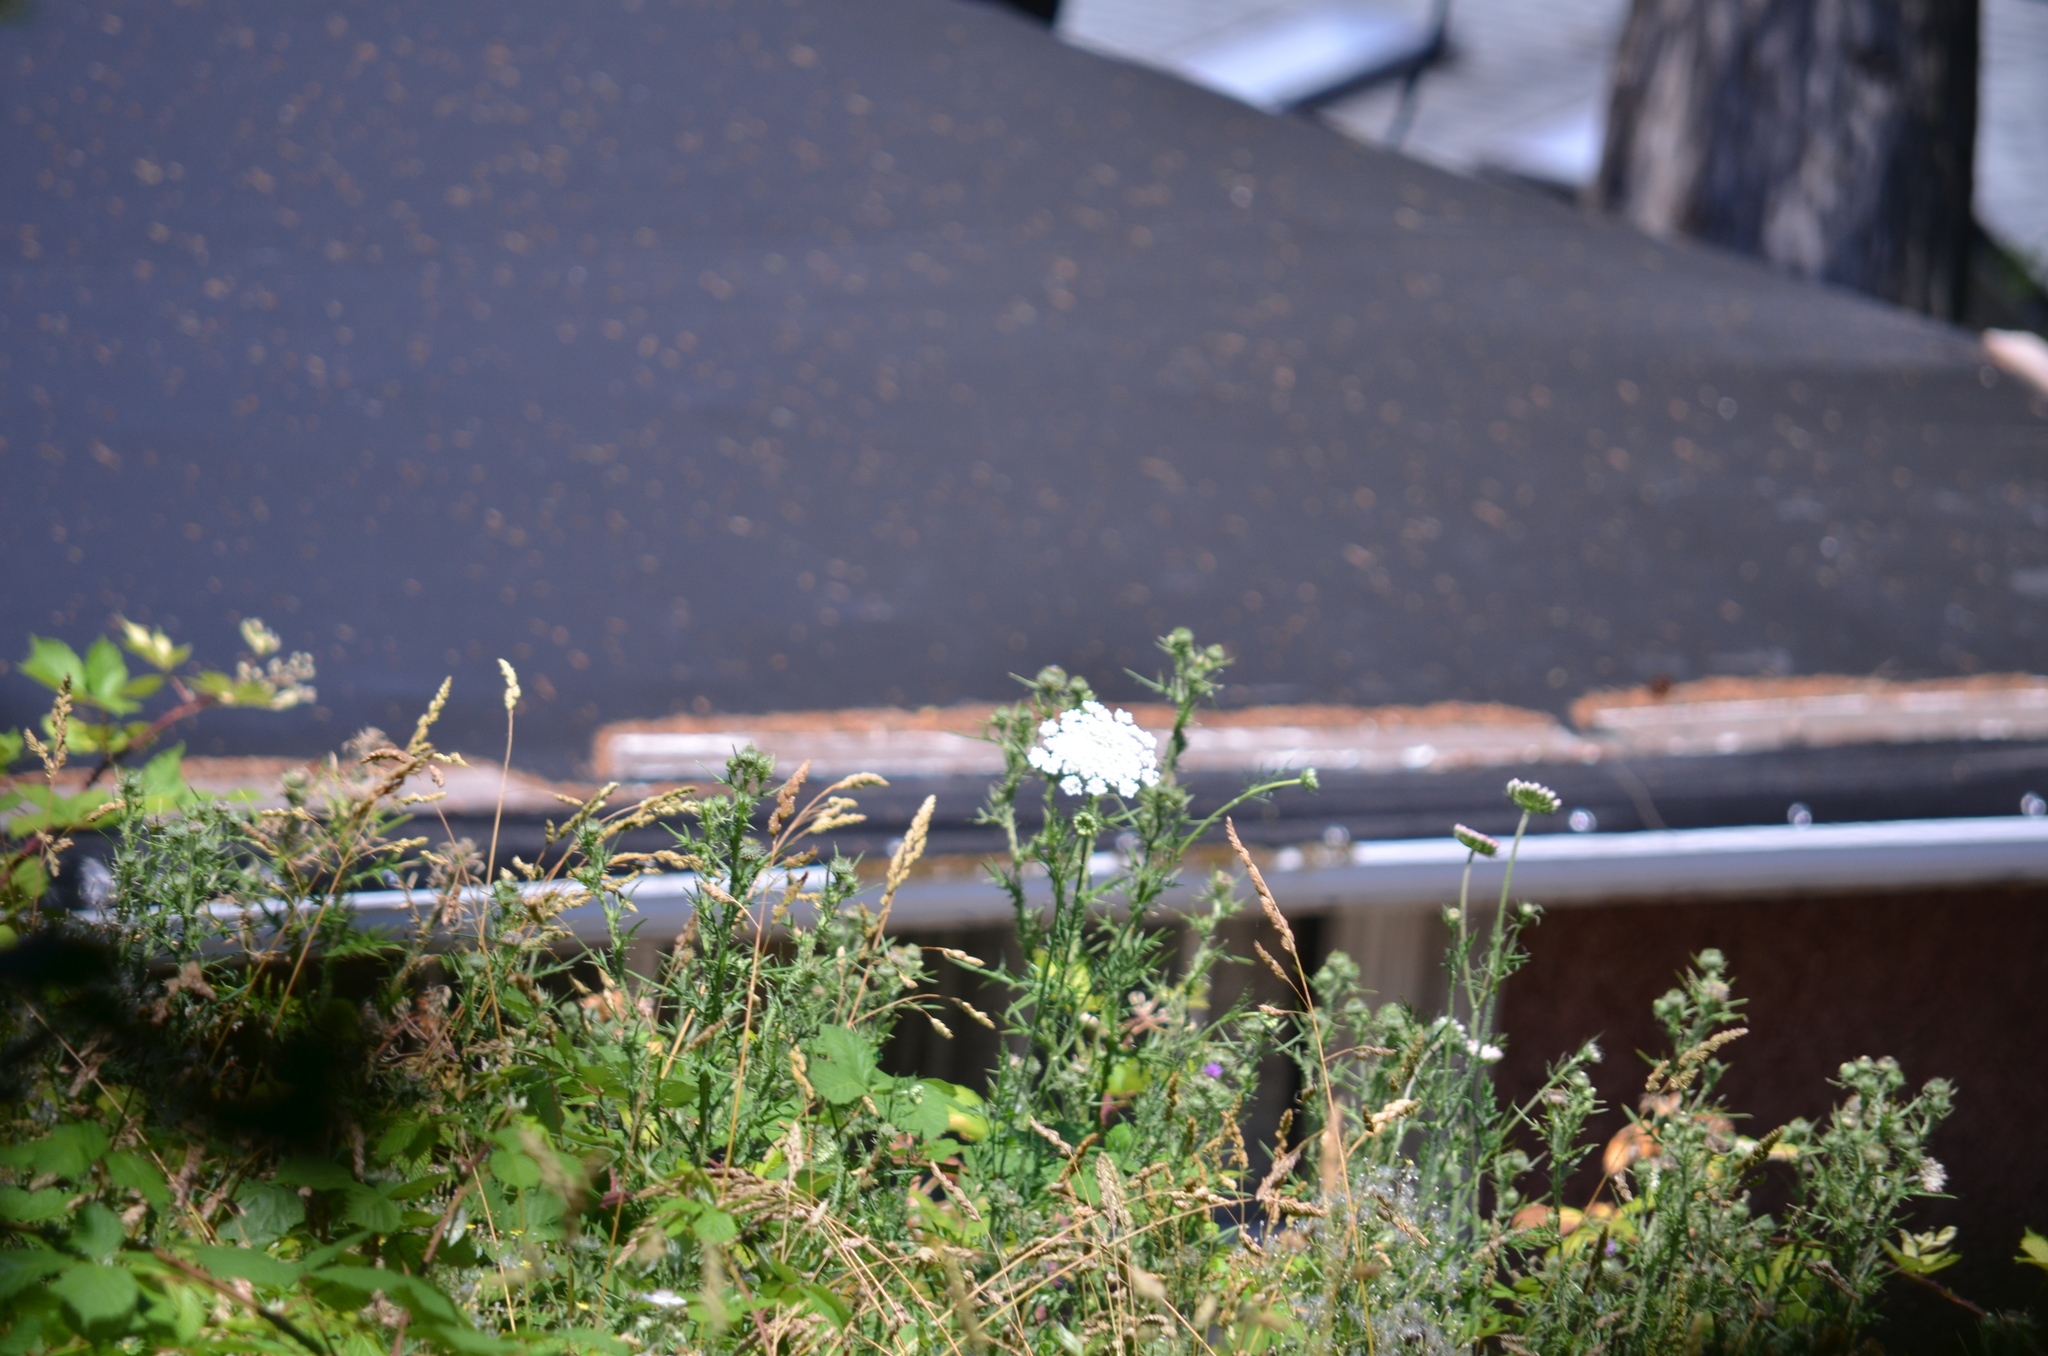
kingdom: Plantae
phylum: Tracheophyta
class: Magnoliopsida
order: Apiales
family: Apiaceae
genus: Daucus
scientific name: Daucus carota
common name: Wild carrot
